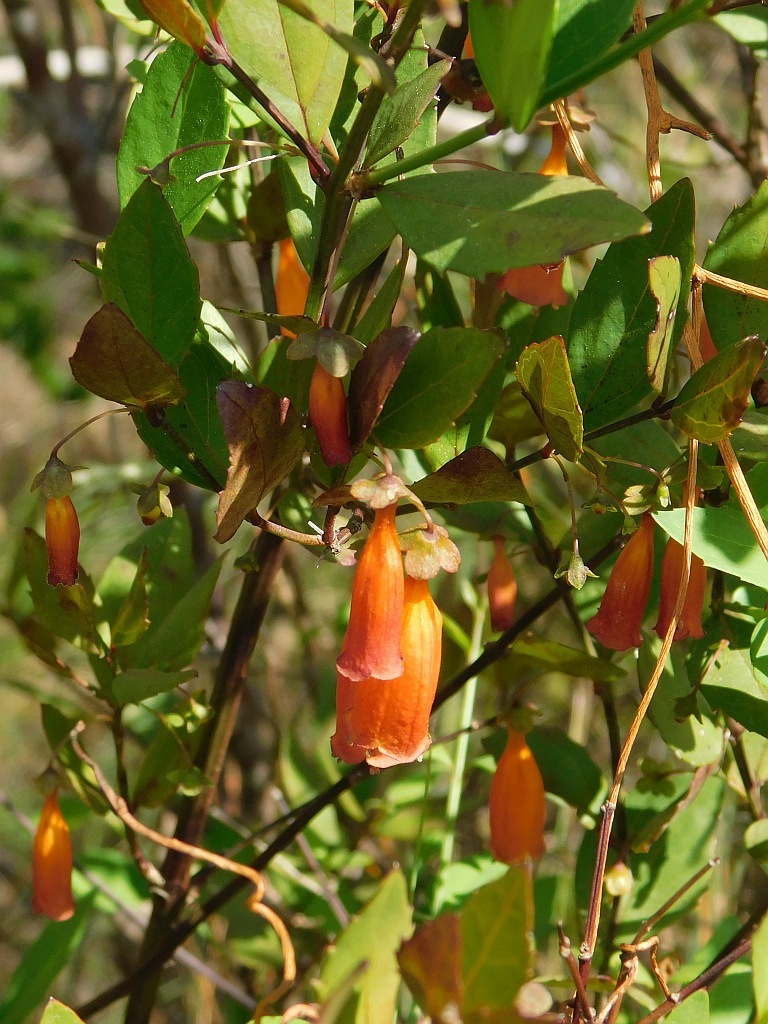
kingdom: Plantae
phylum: Tracheophyta
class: Magnoliopsida
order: Lamiales
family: Stilbaceae
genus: Halleria
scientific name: Halleria elliptica
